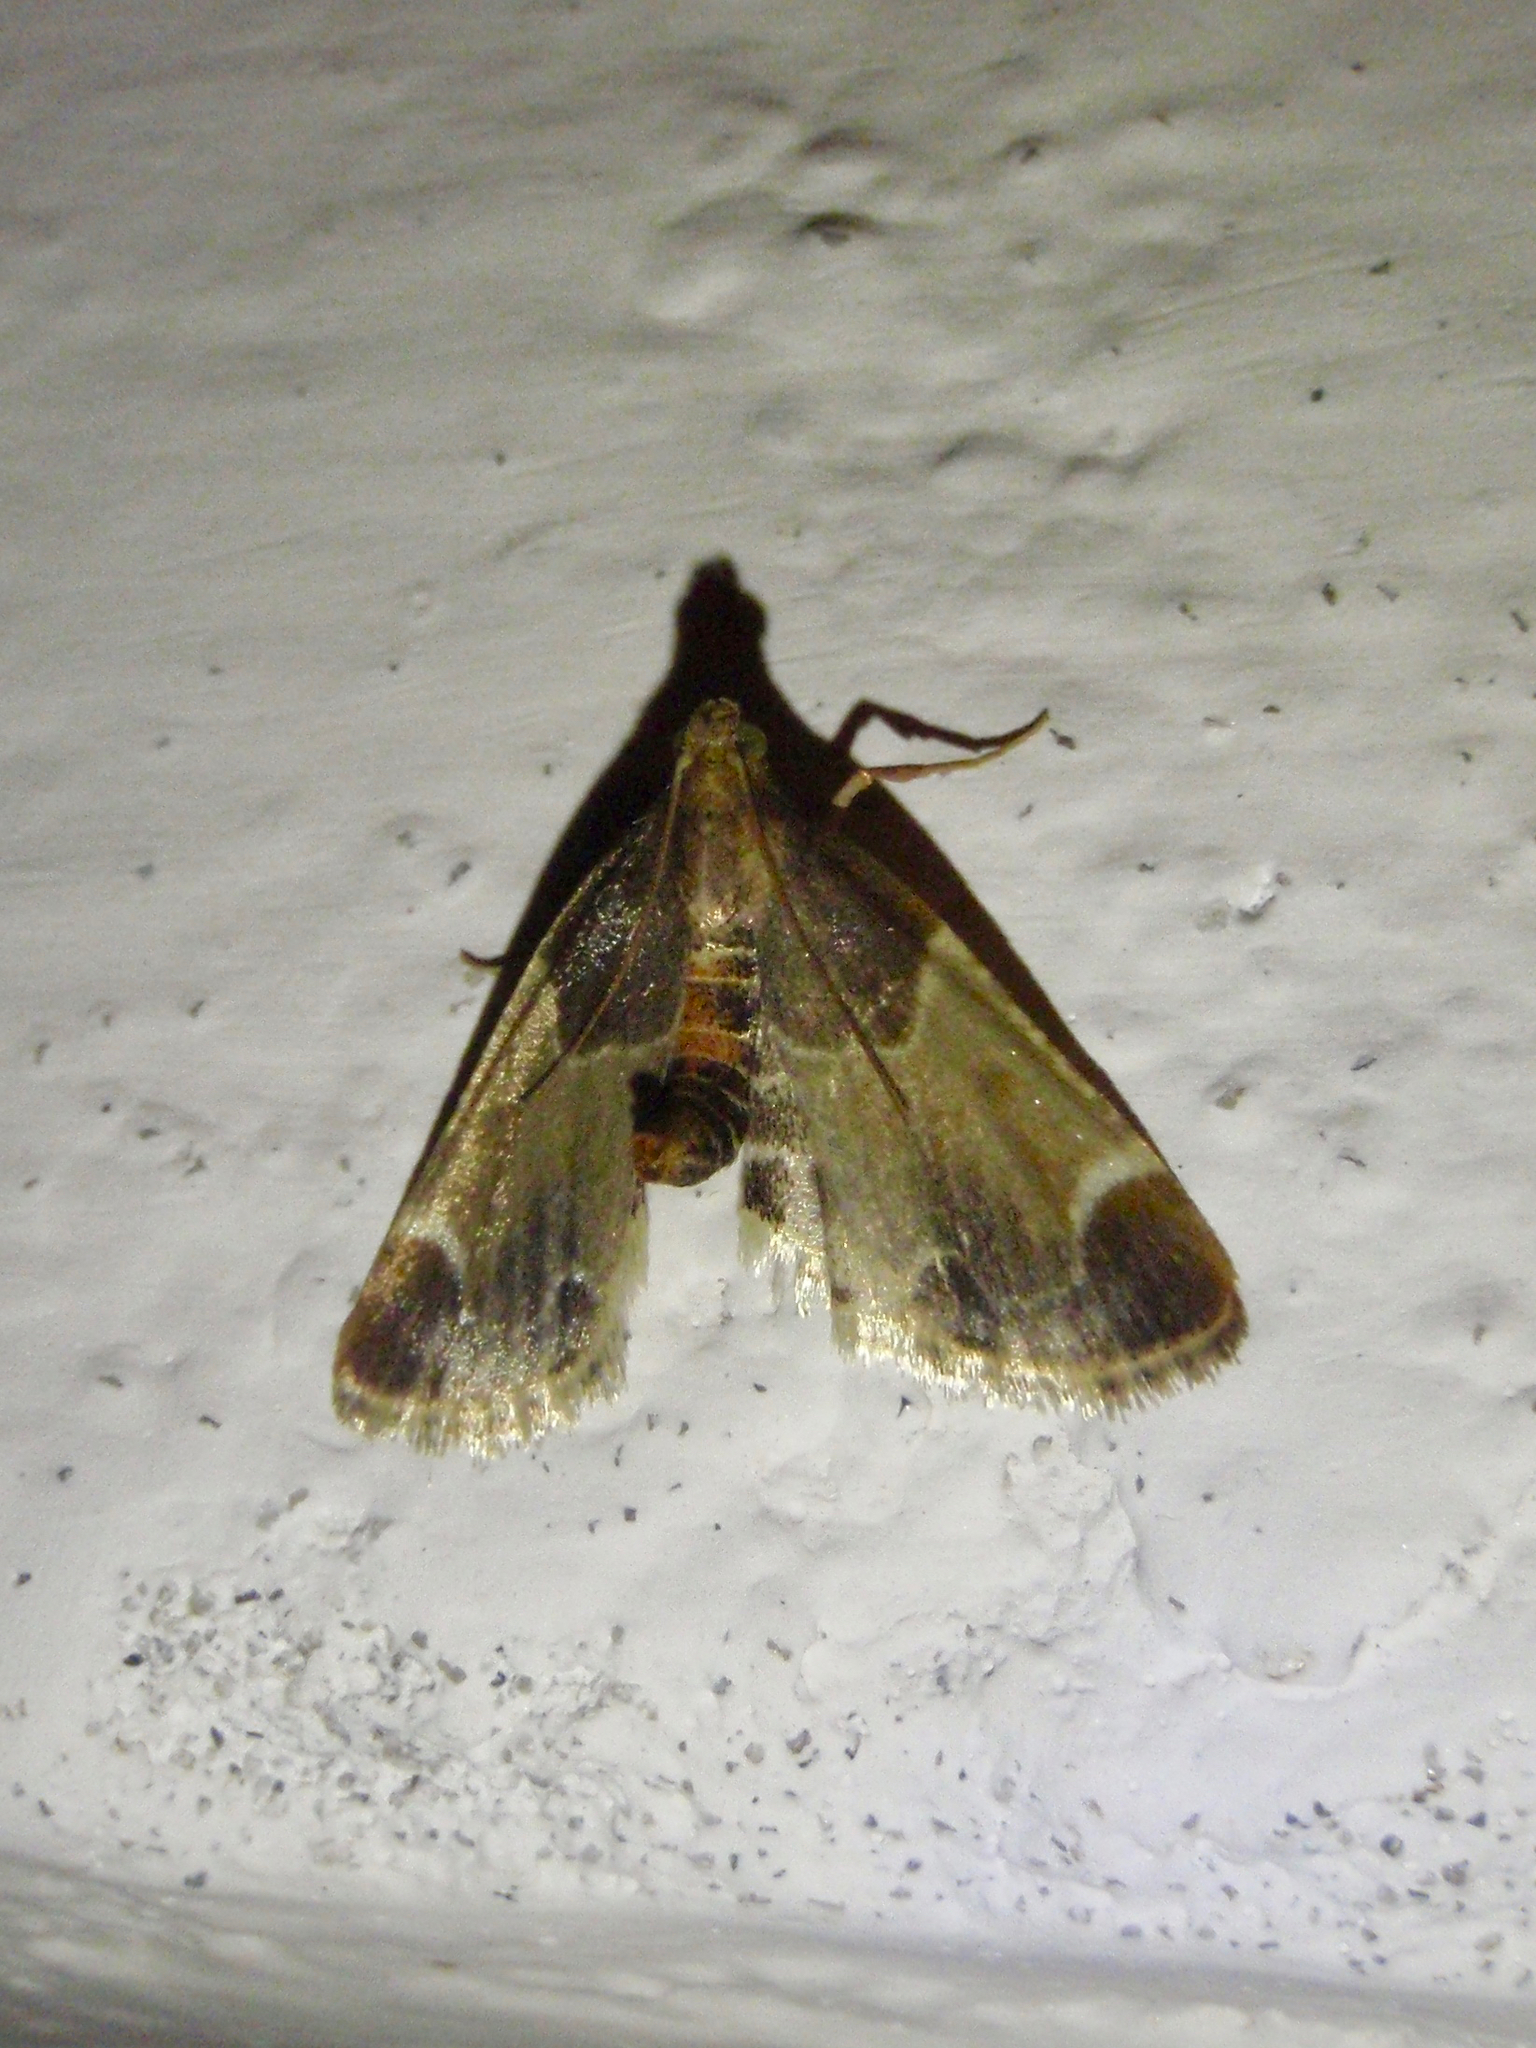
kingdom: Animalia
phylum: Arthropoda
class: Insecta
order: Lepidoptera
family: Pyralidae
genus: Pyralis
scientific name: Pyralis farinalis
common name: Meal moth
